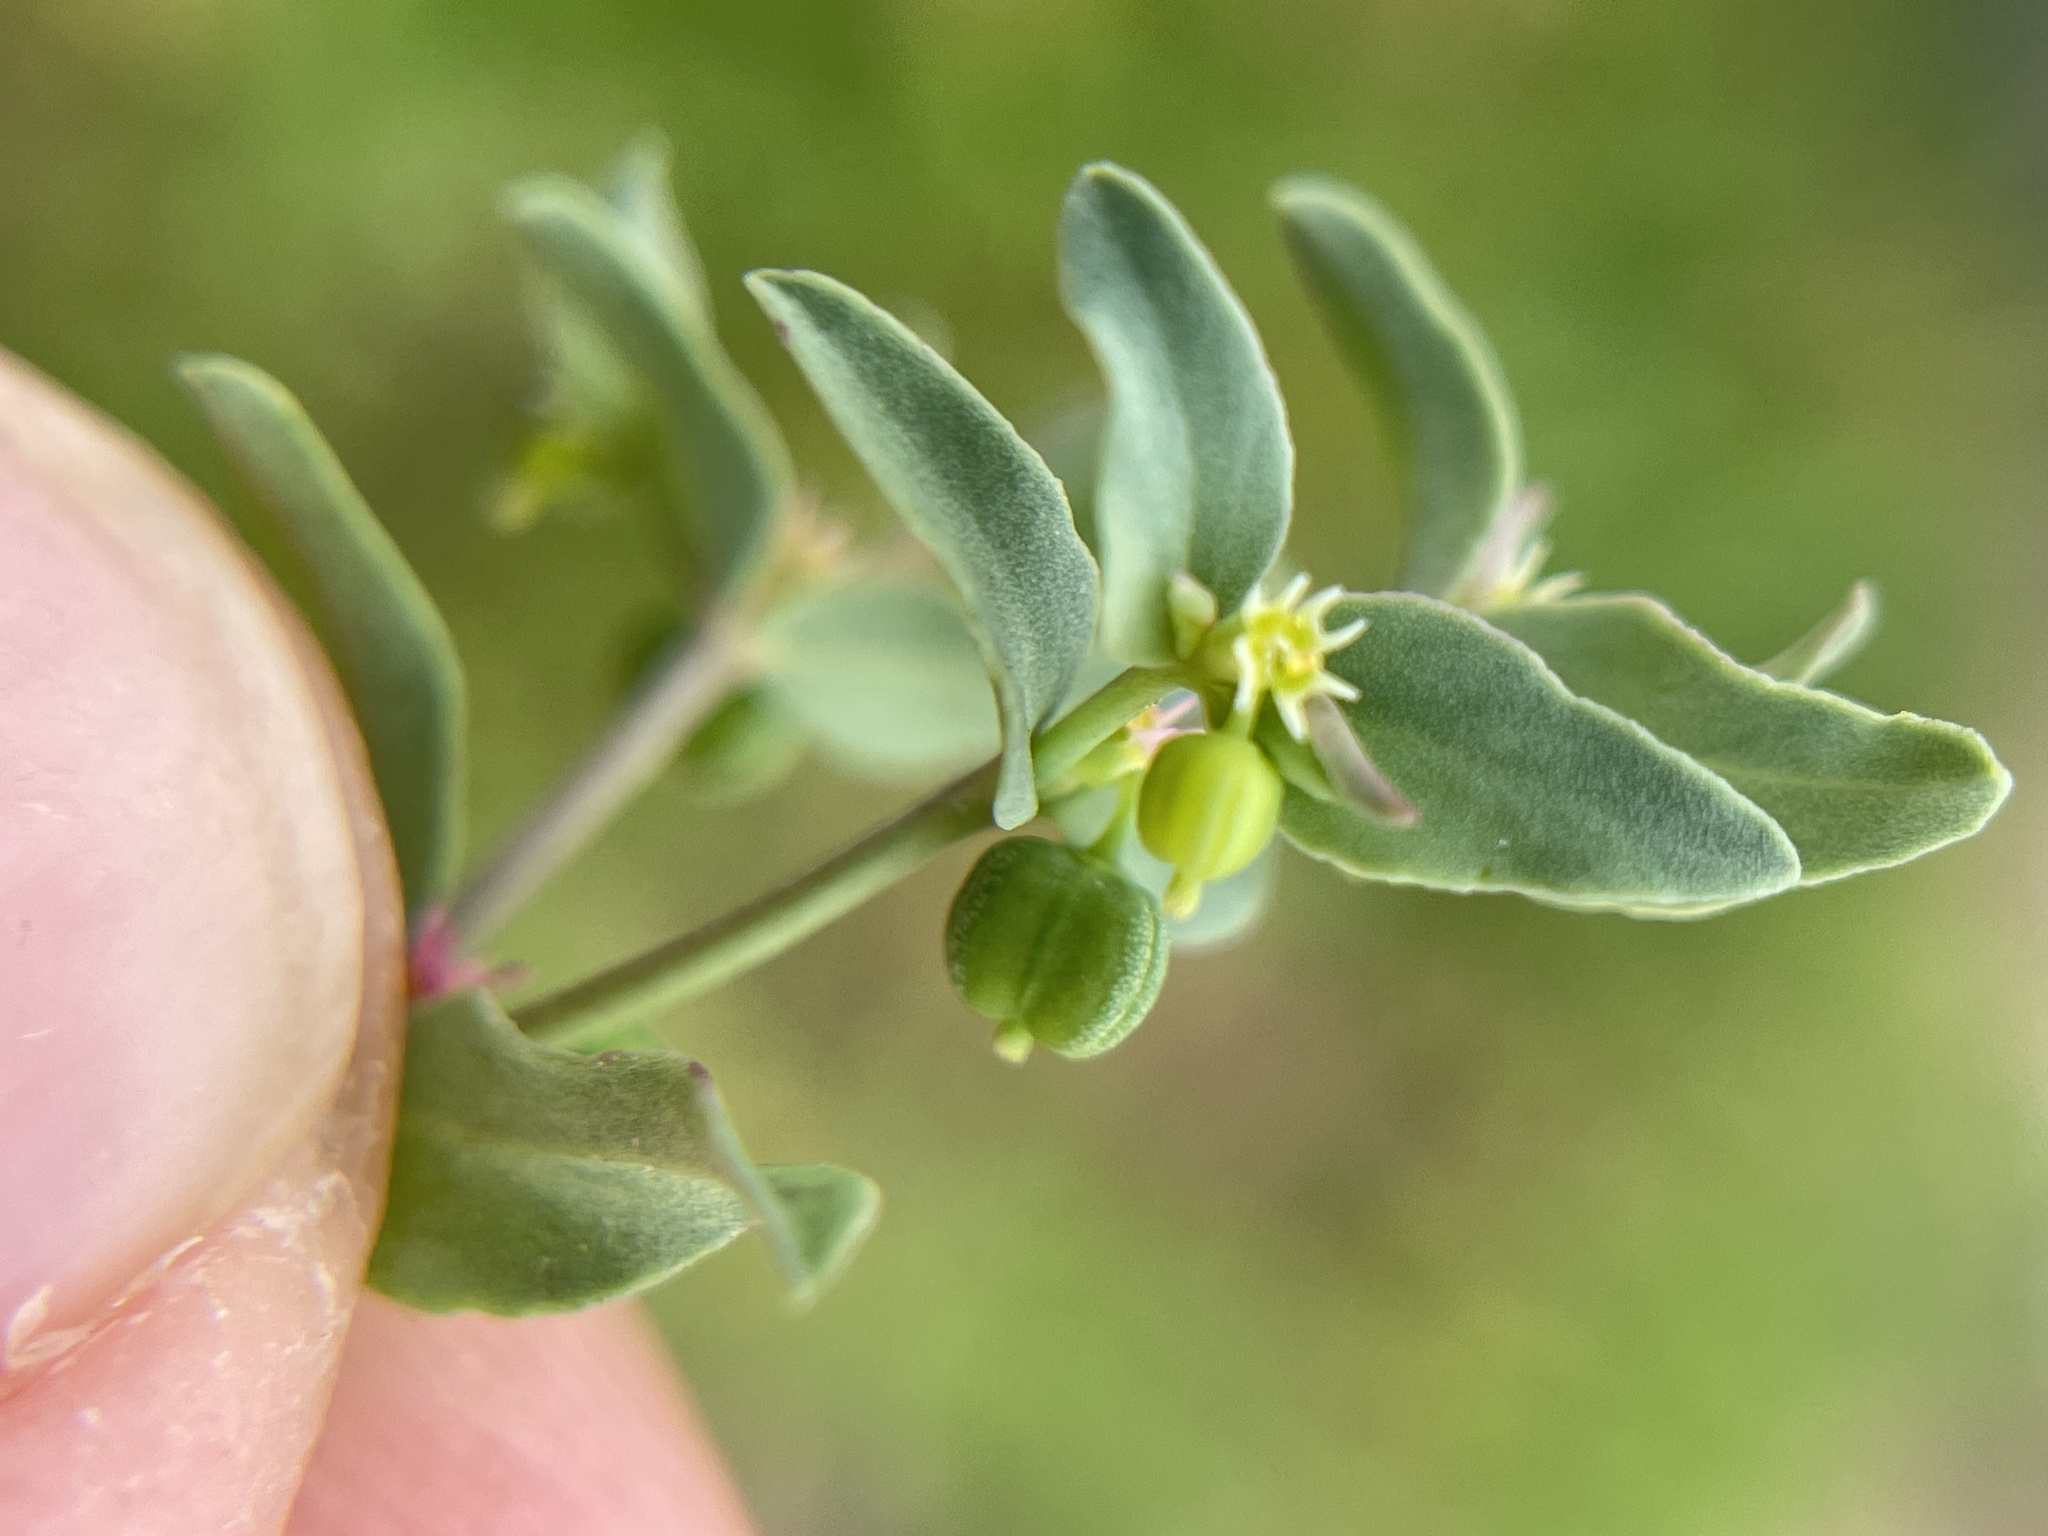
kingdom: Plantae
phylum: Tracheophyta
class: Magnoliopsida
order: Malpighiales
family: Euphorbiaceae
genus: Euphorbia
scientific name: Euphorbia peplidion
